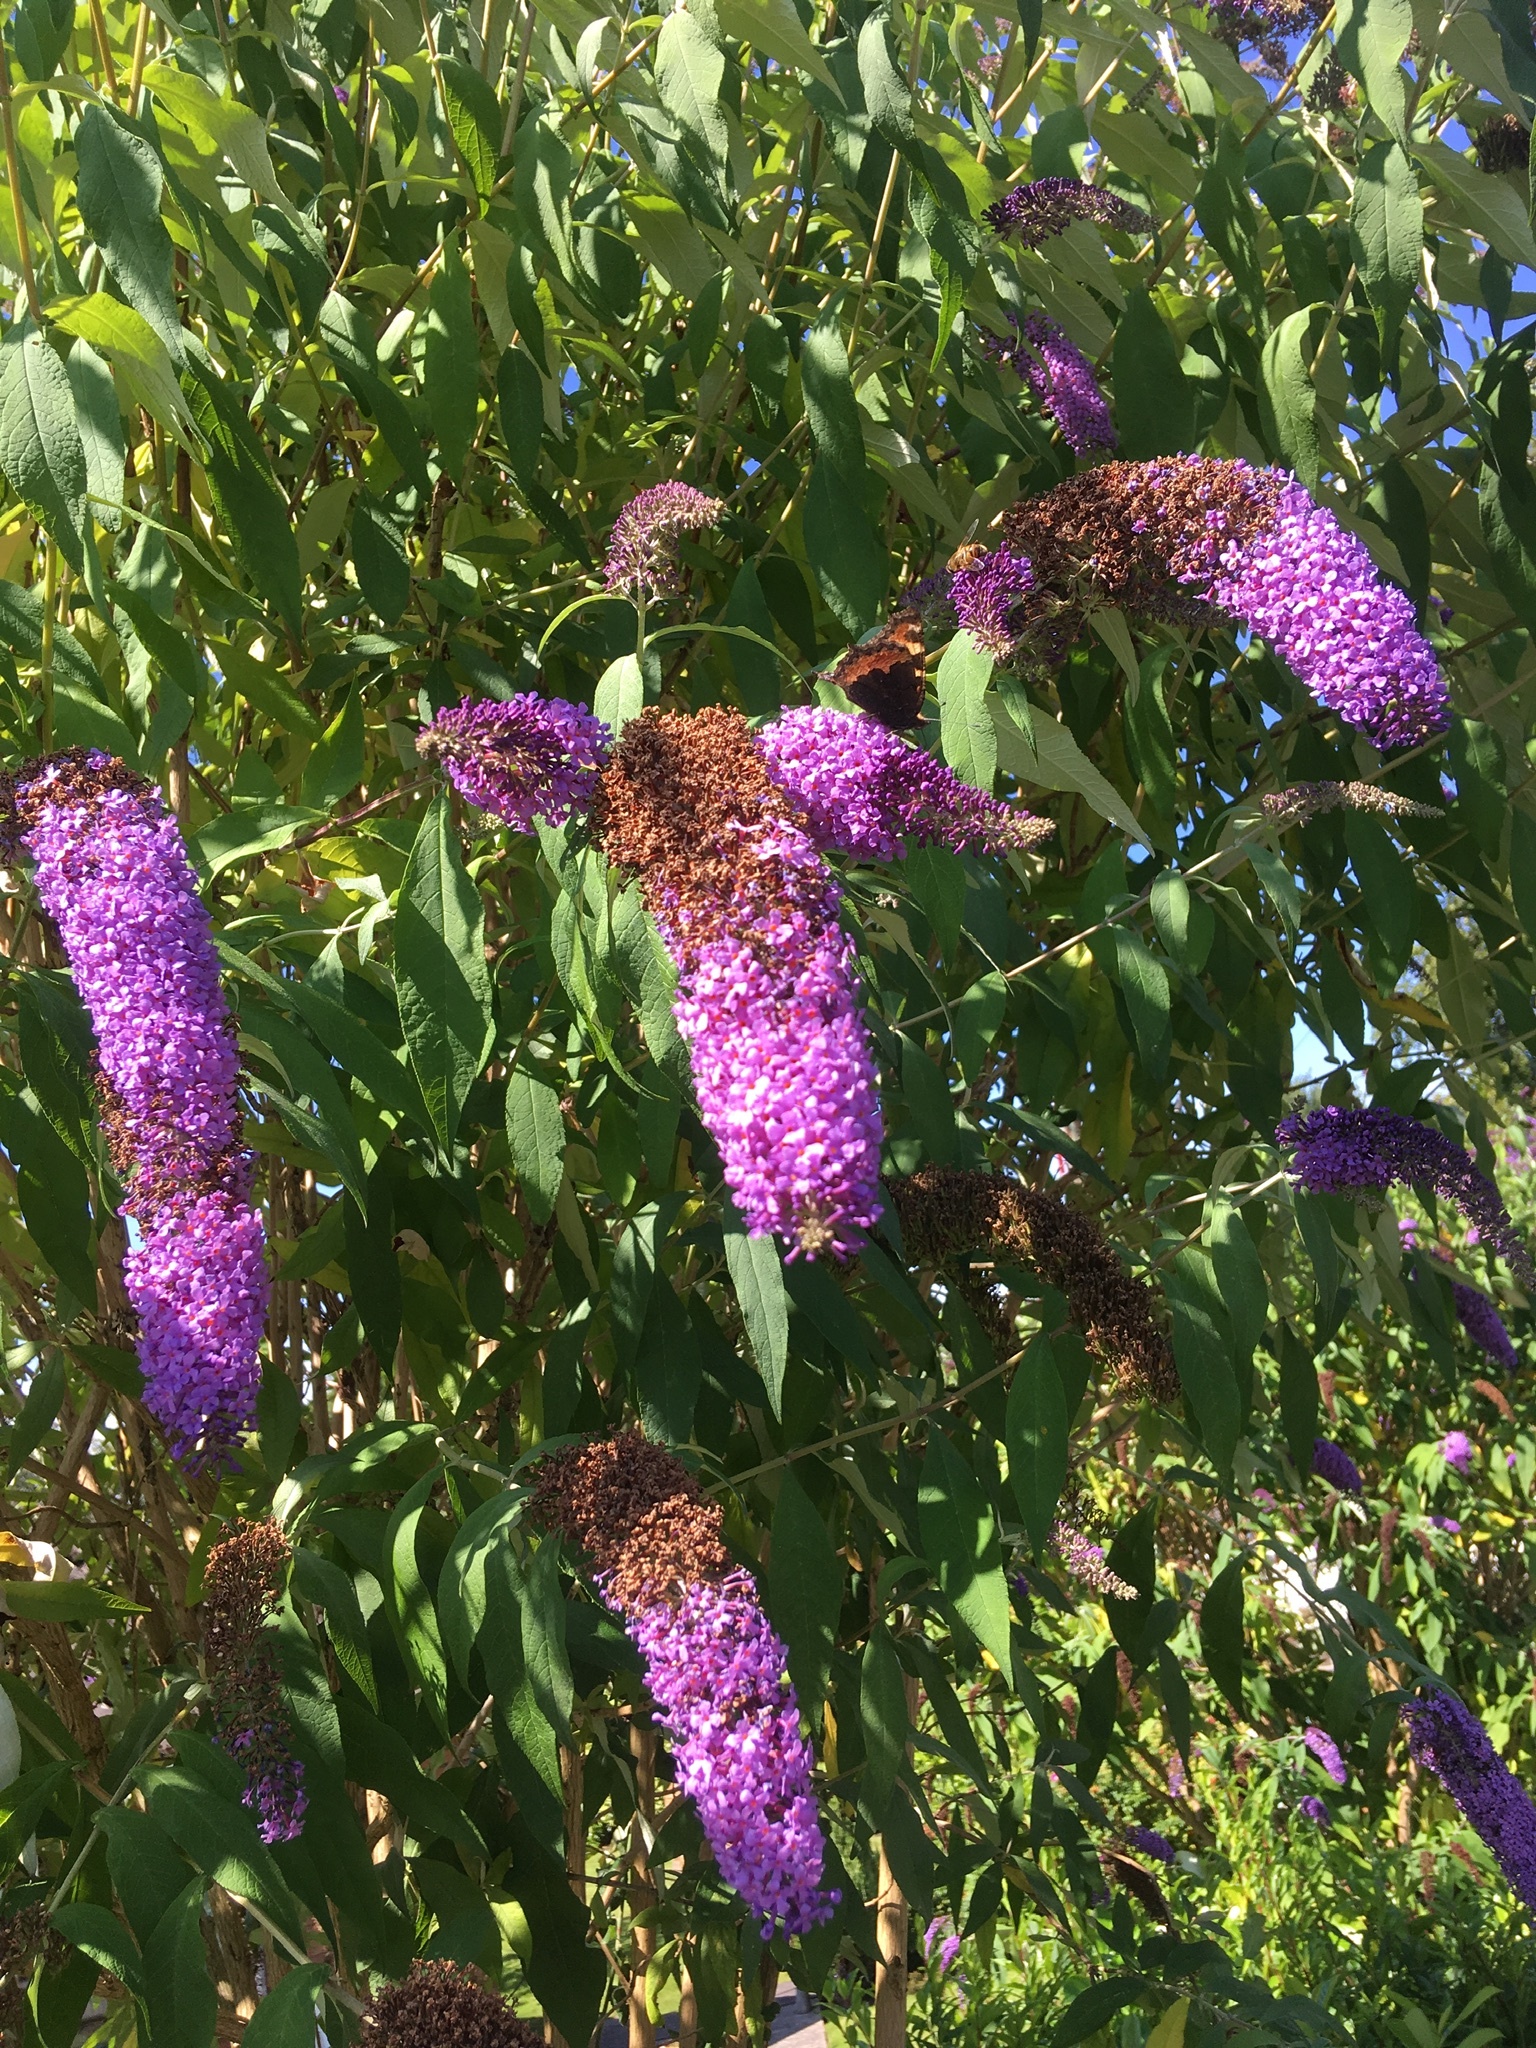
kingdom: Animalia
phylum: Arthropoda
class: Insecta
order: Lepidoptera
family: Nymphalidae
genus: Aglais
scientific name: Aglais urticae
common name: Small tortoiseshell
